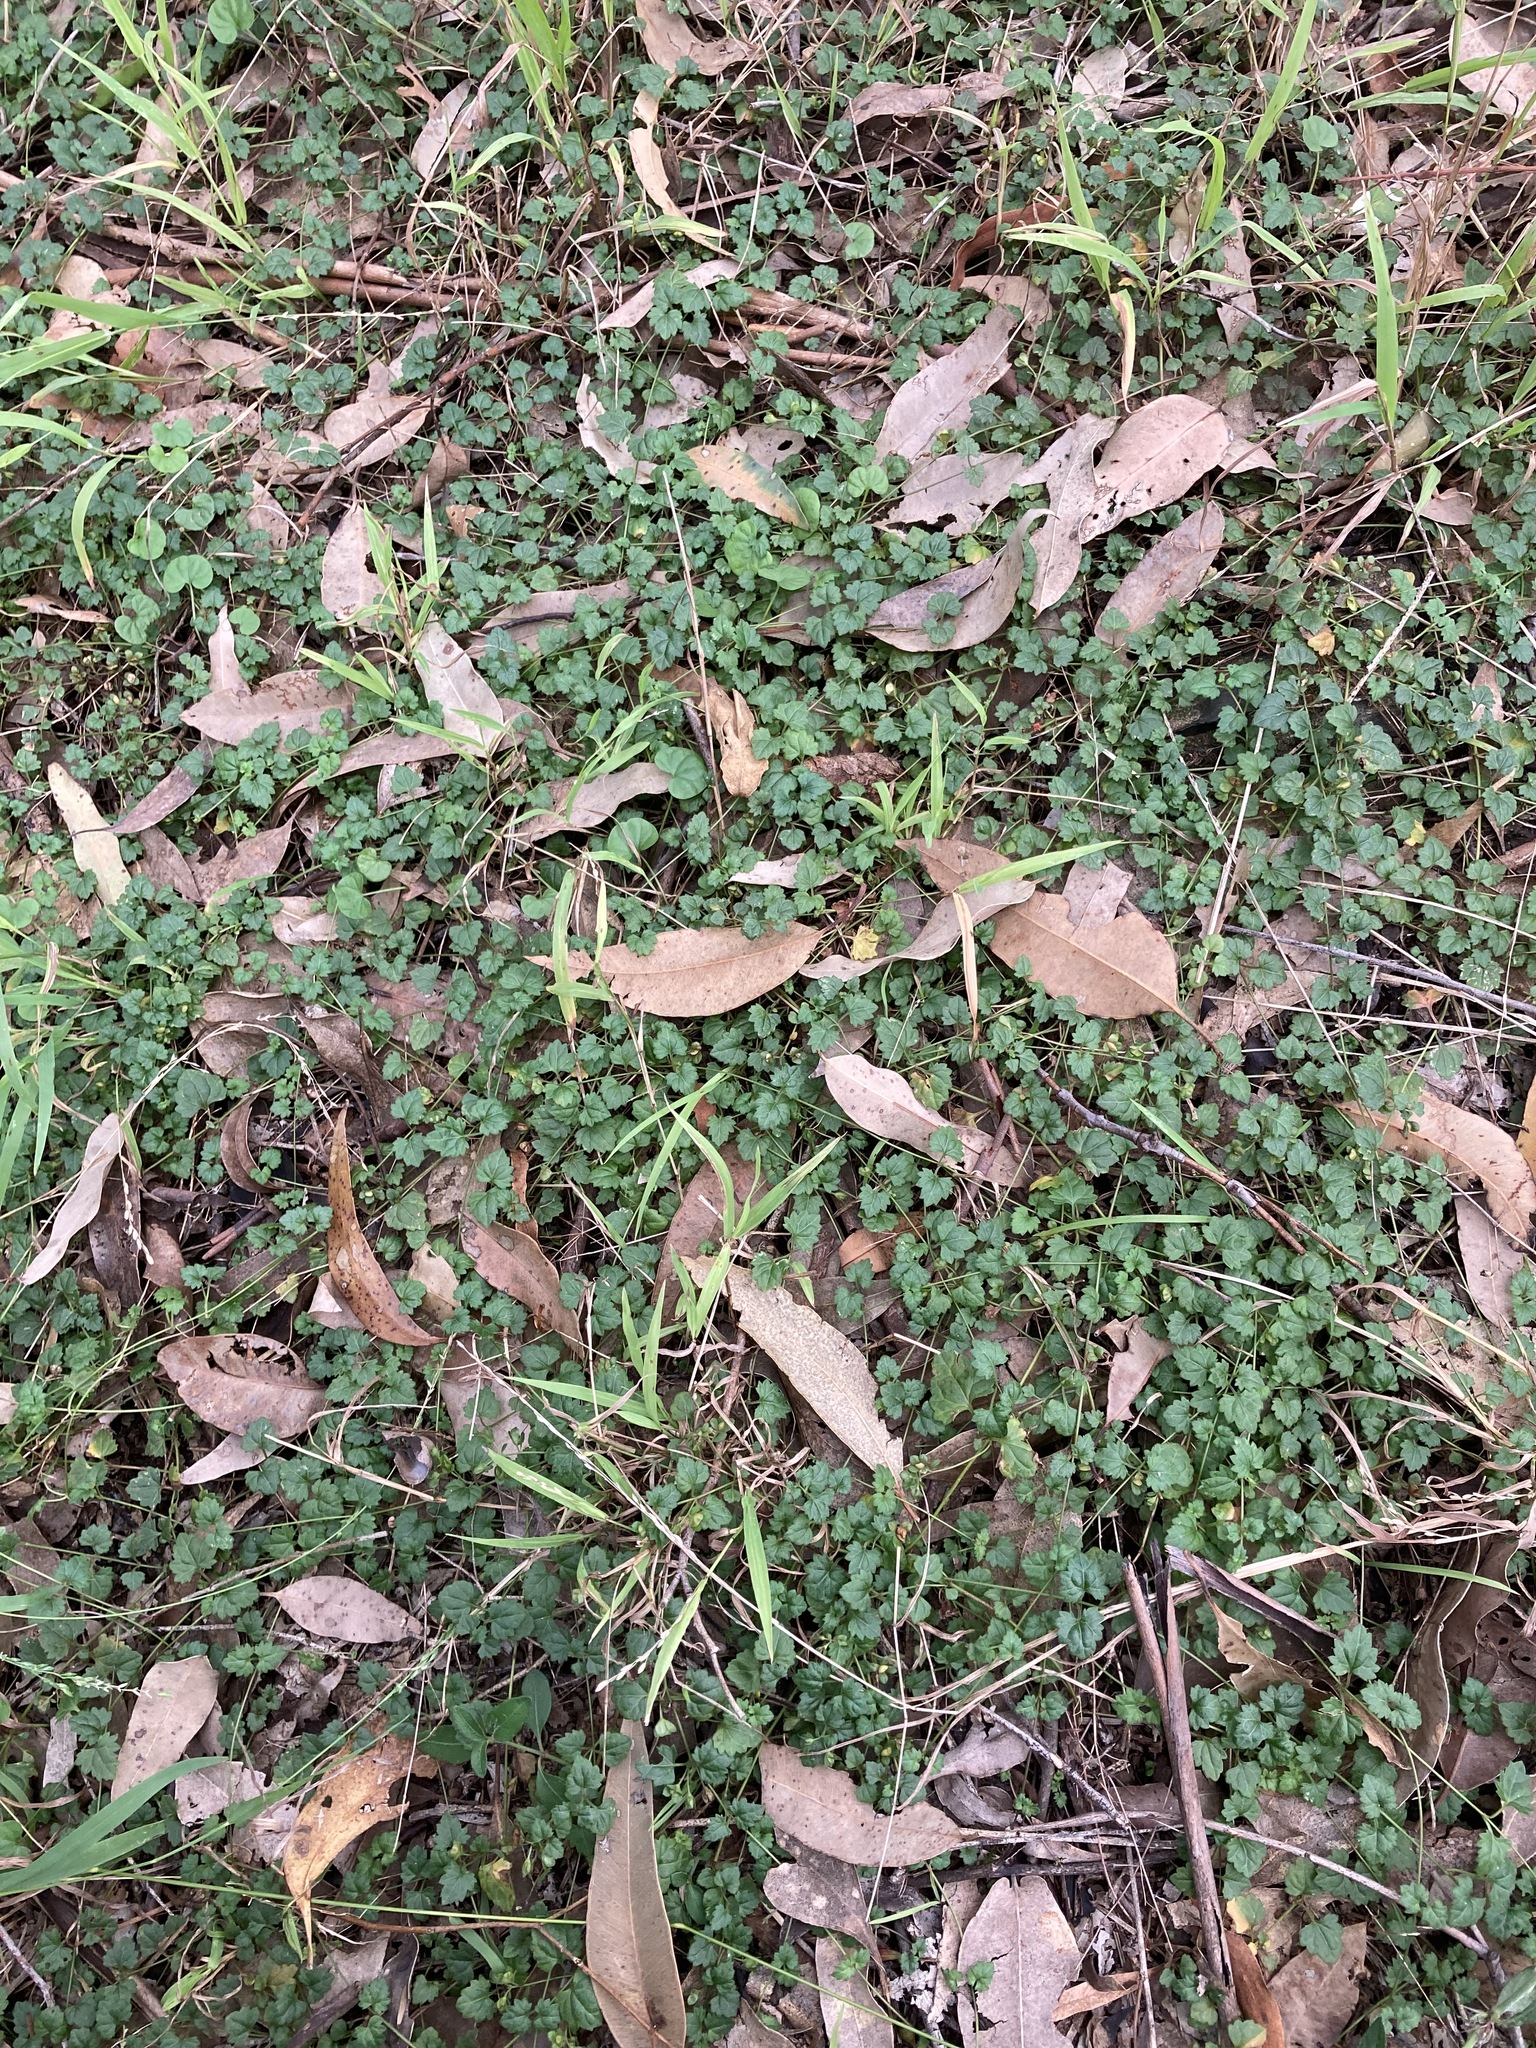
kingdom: Plantae
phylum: Tracheophyta
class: Magnoliopsida
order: Lamiales
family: Plantaginaceae
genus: Veronica
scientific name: Veronica plebeia
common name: Speedwell
